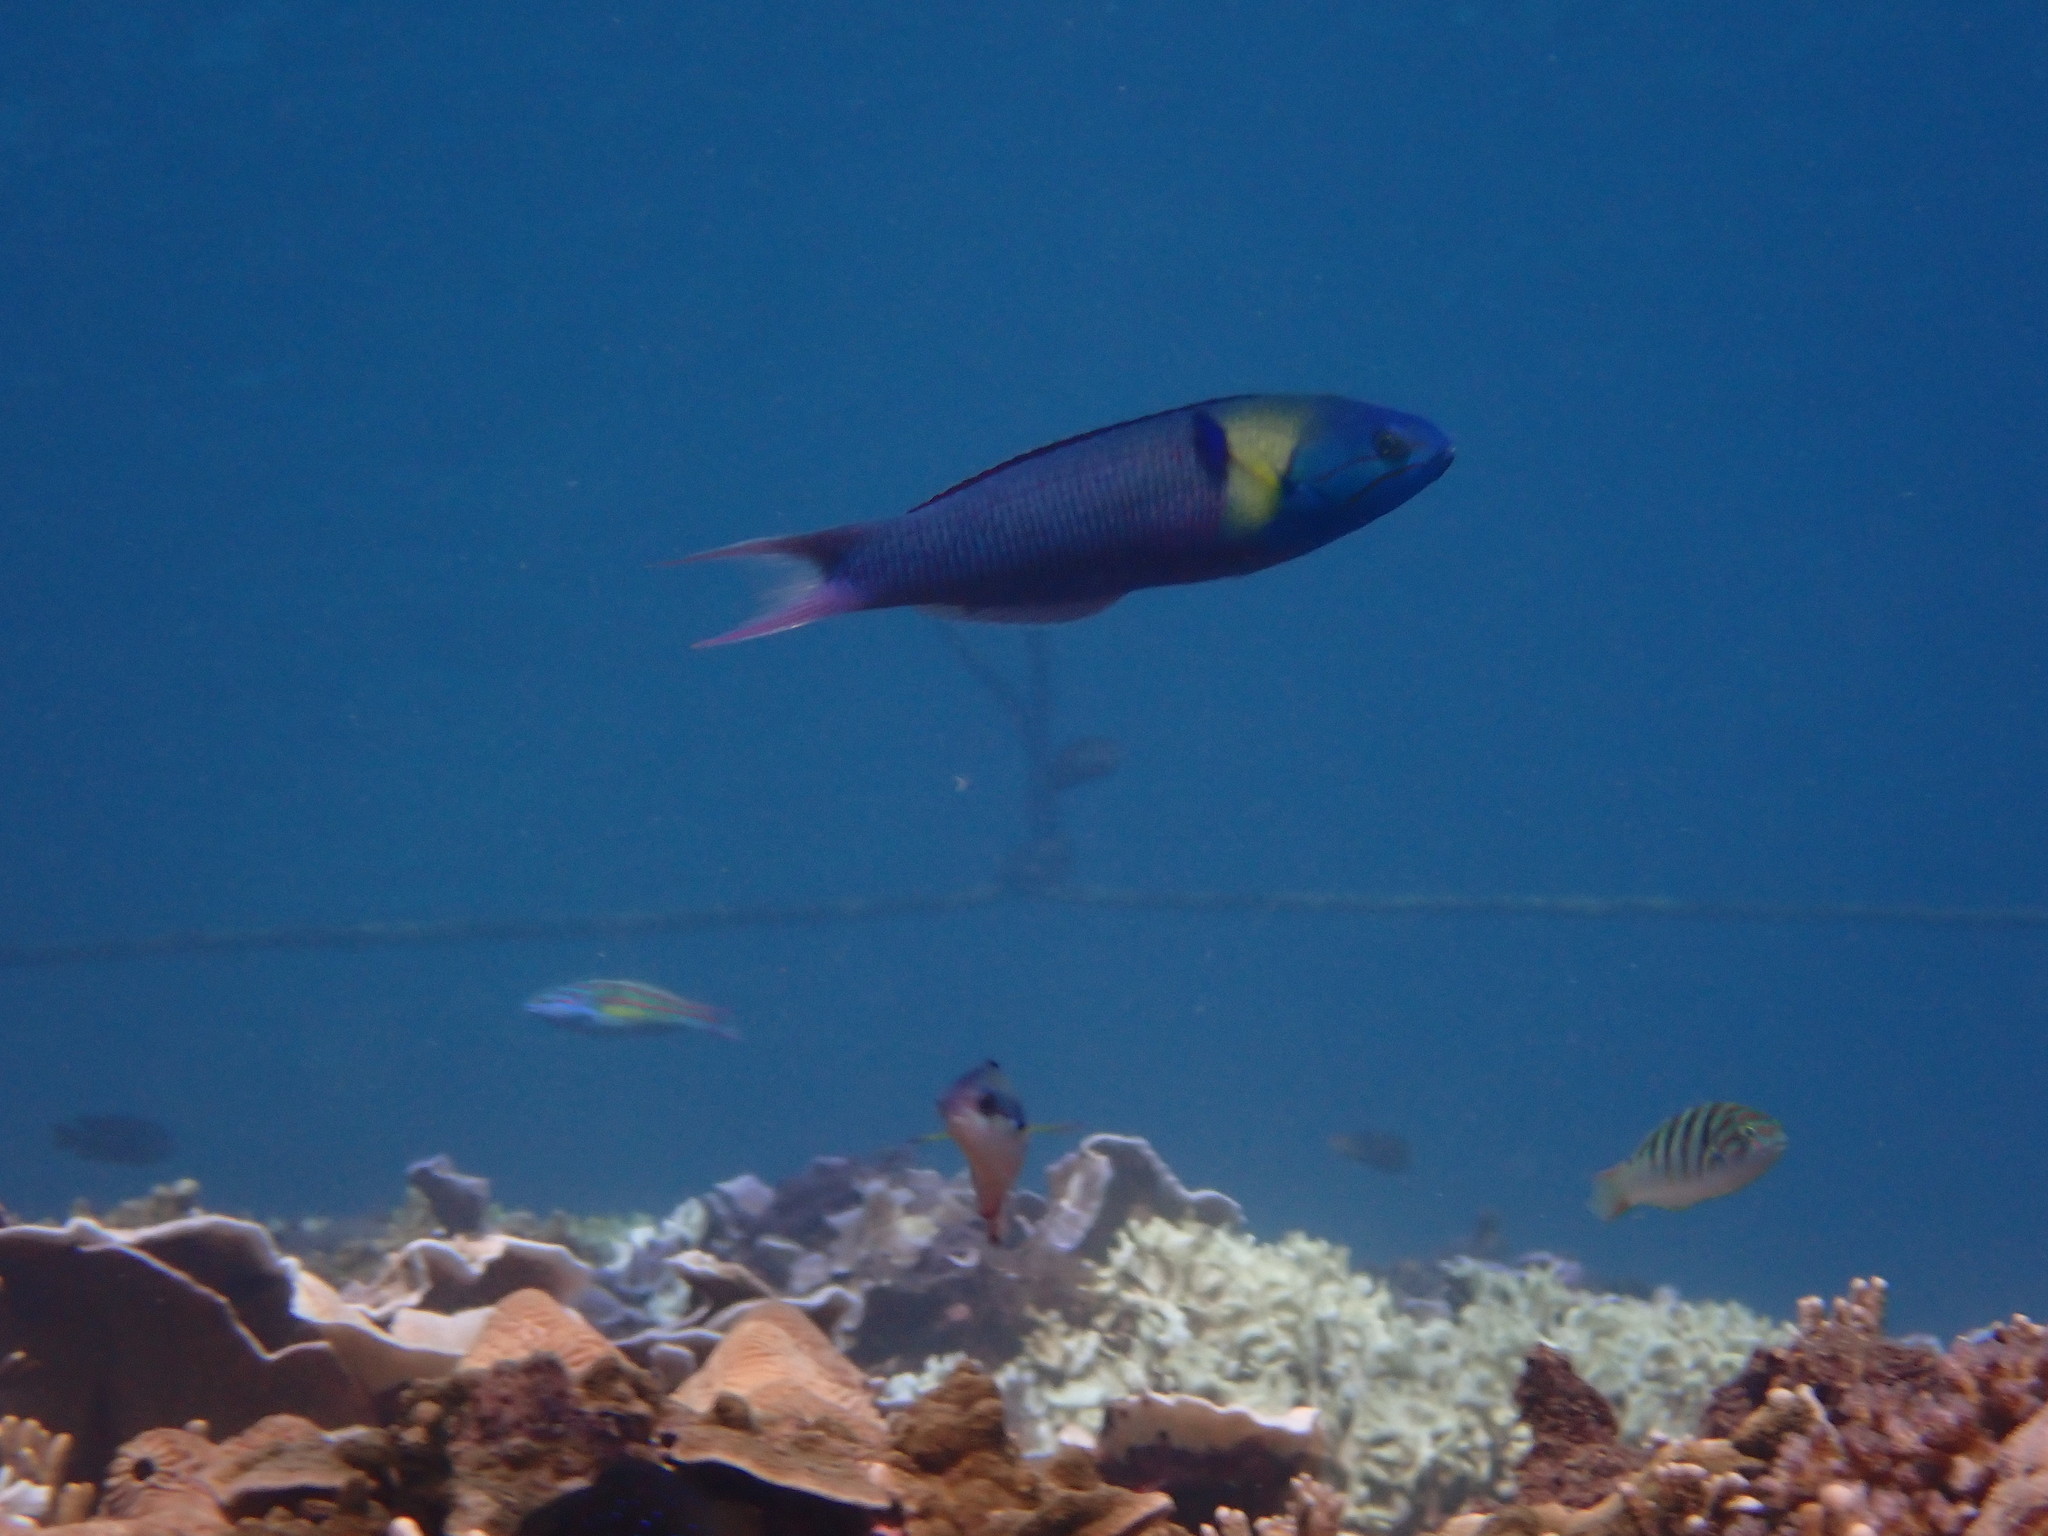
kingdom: Animalia
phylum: Chordata
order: Perciformes
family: Labridae
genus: Thalassoma
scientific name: Thalassoma amblycephalum
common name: Bluehead wrasse
